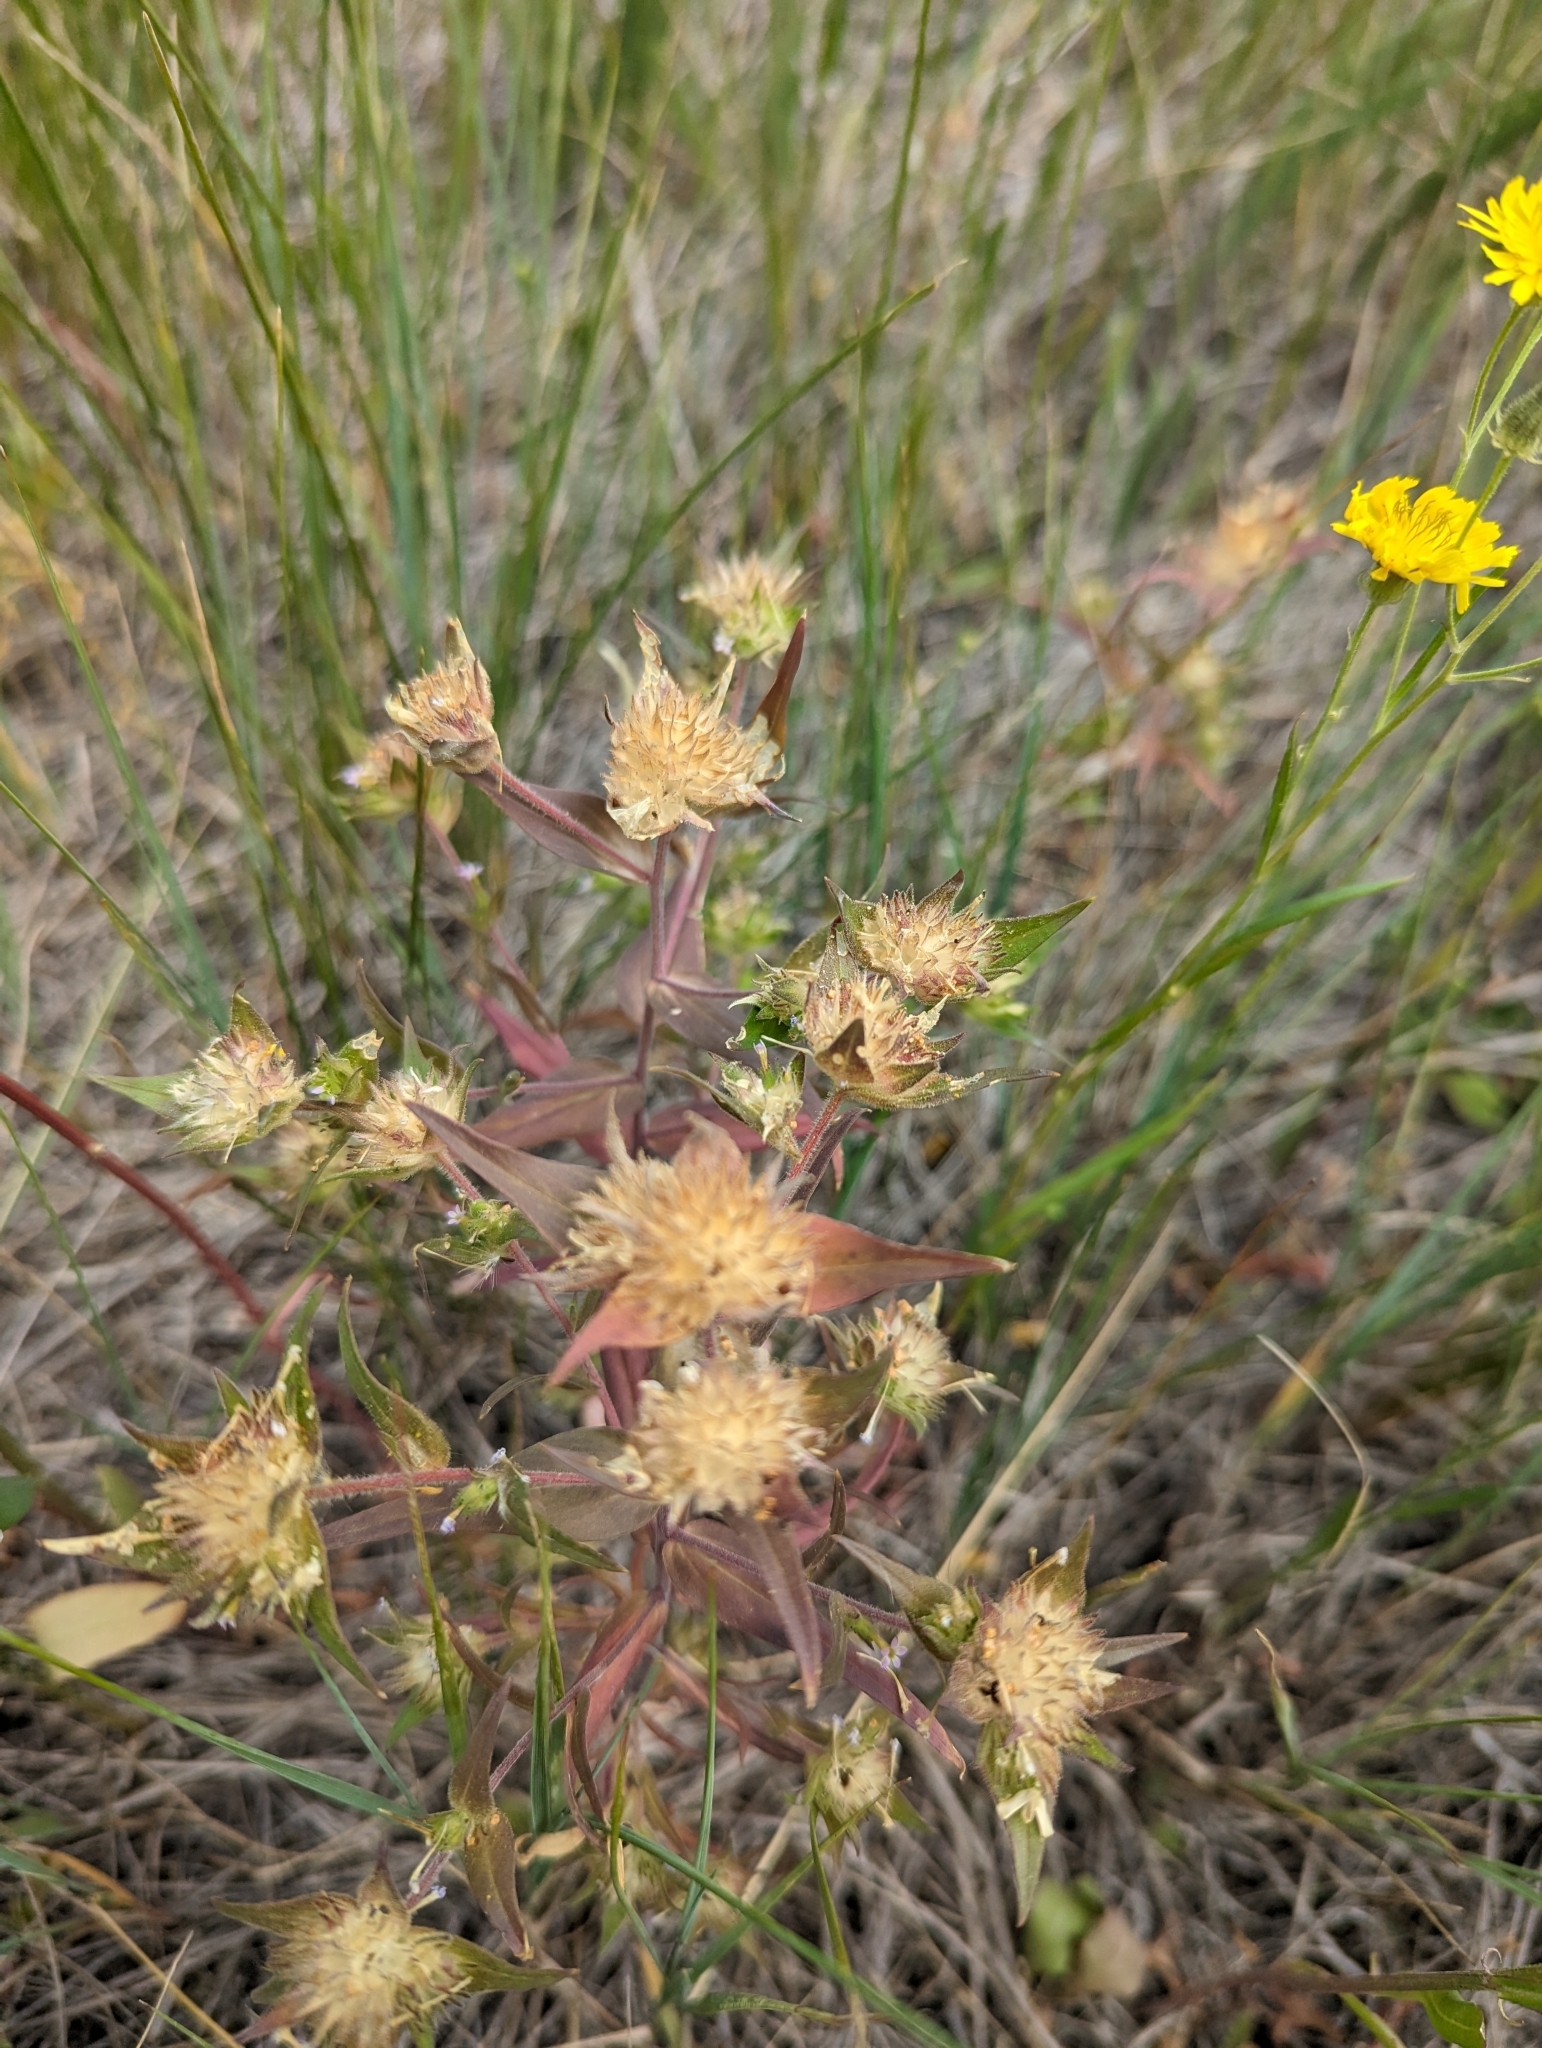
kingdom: Plantae
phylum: Tracheophyta
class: Magnoliopsida
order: Ericales
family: Polemoniaceae
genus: Collomia
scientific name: Collomia linearis
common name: Tiny trumpet
